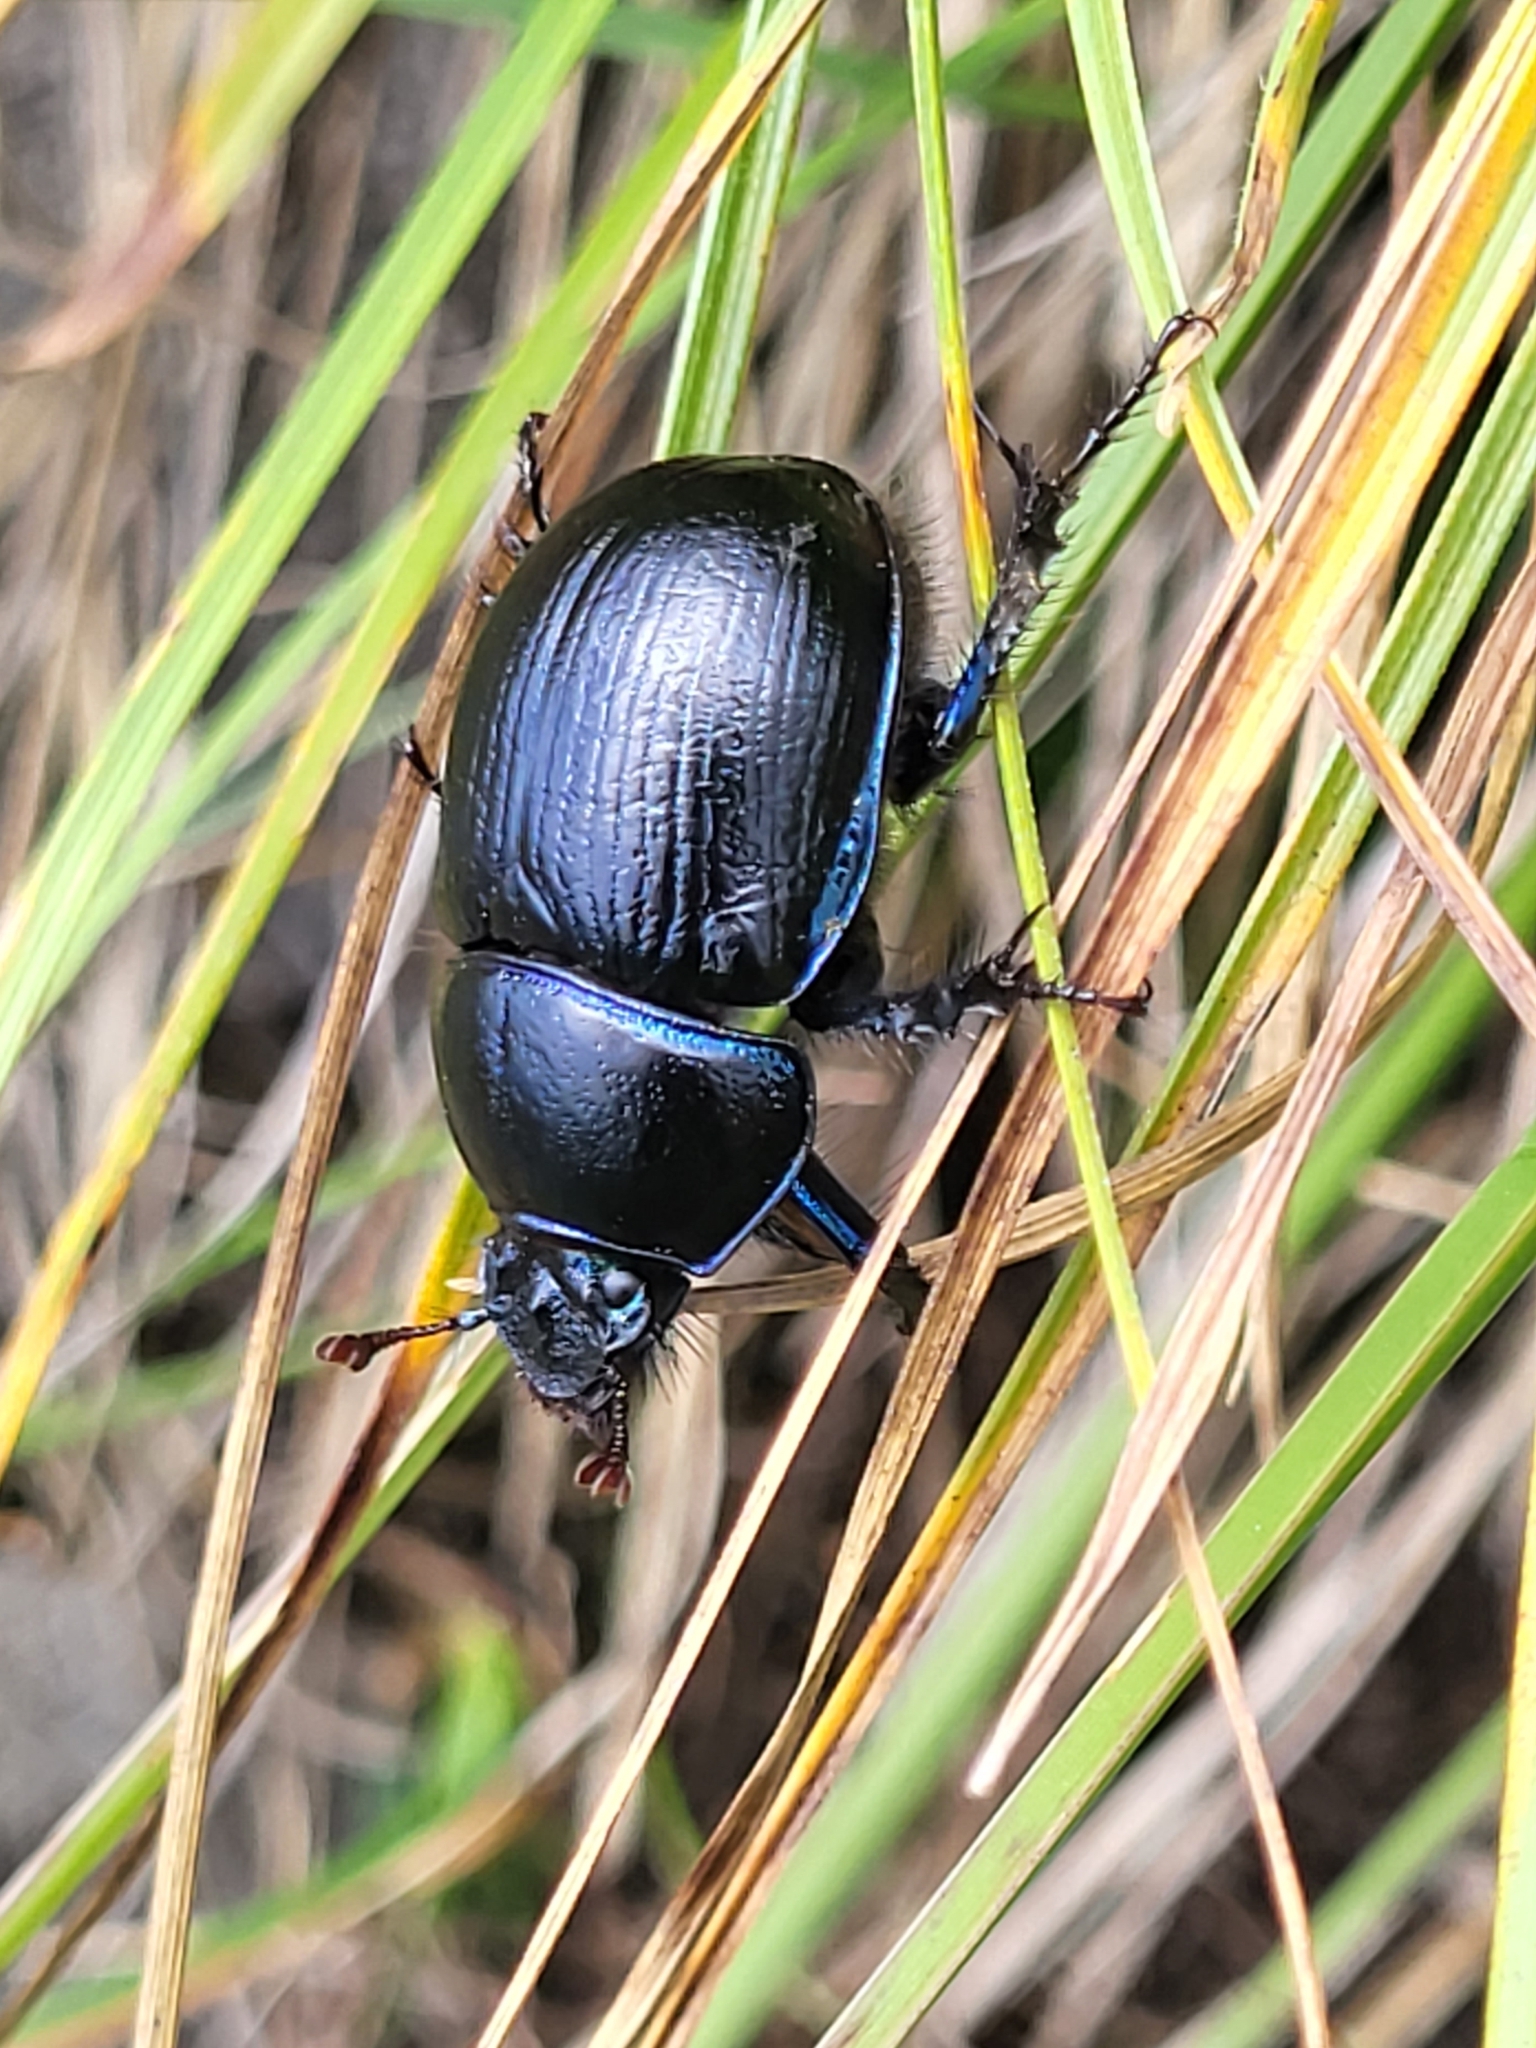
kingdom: Animalia
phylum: Arthropoda
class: Insecta
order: Coleoptera
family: Geotrupidae
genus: Anoplotrupes
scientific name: Anoplotrupes stercorosus
